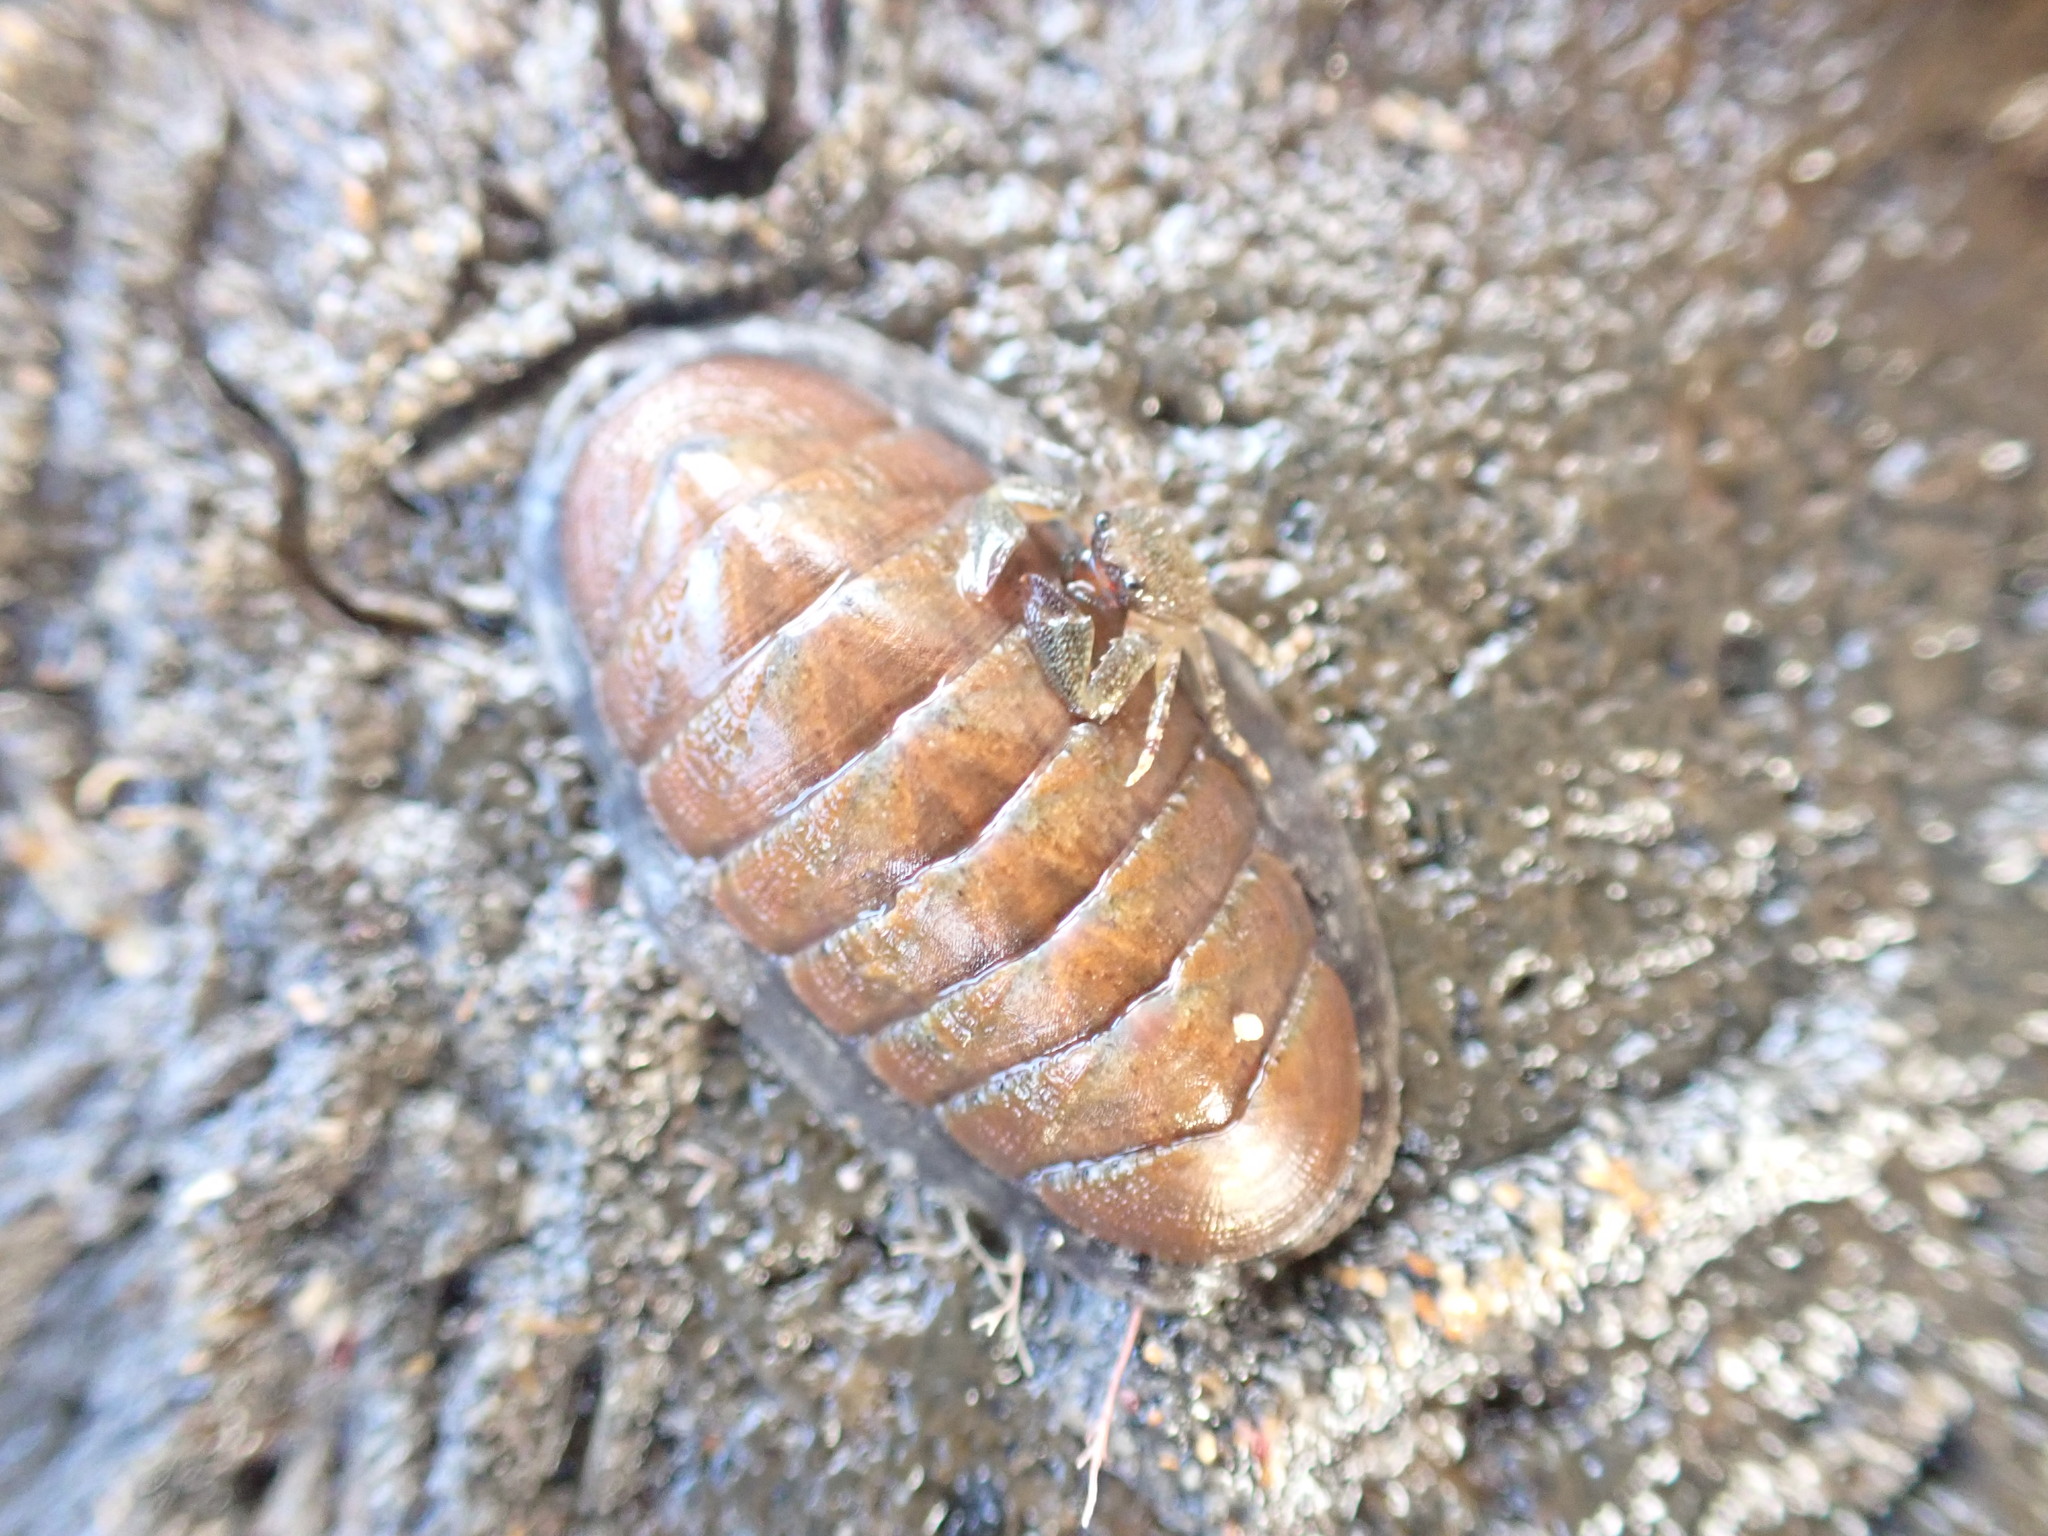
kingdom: Animalia
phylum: Mollusca
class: Polyplacophora
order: Chitonida
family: Ischnochitonidae
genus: Ischnochiton
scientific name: Ischnochiton maorianus
